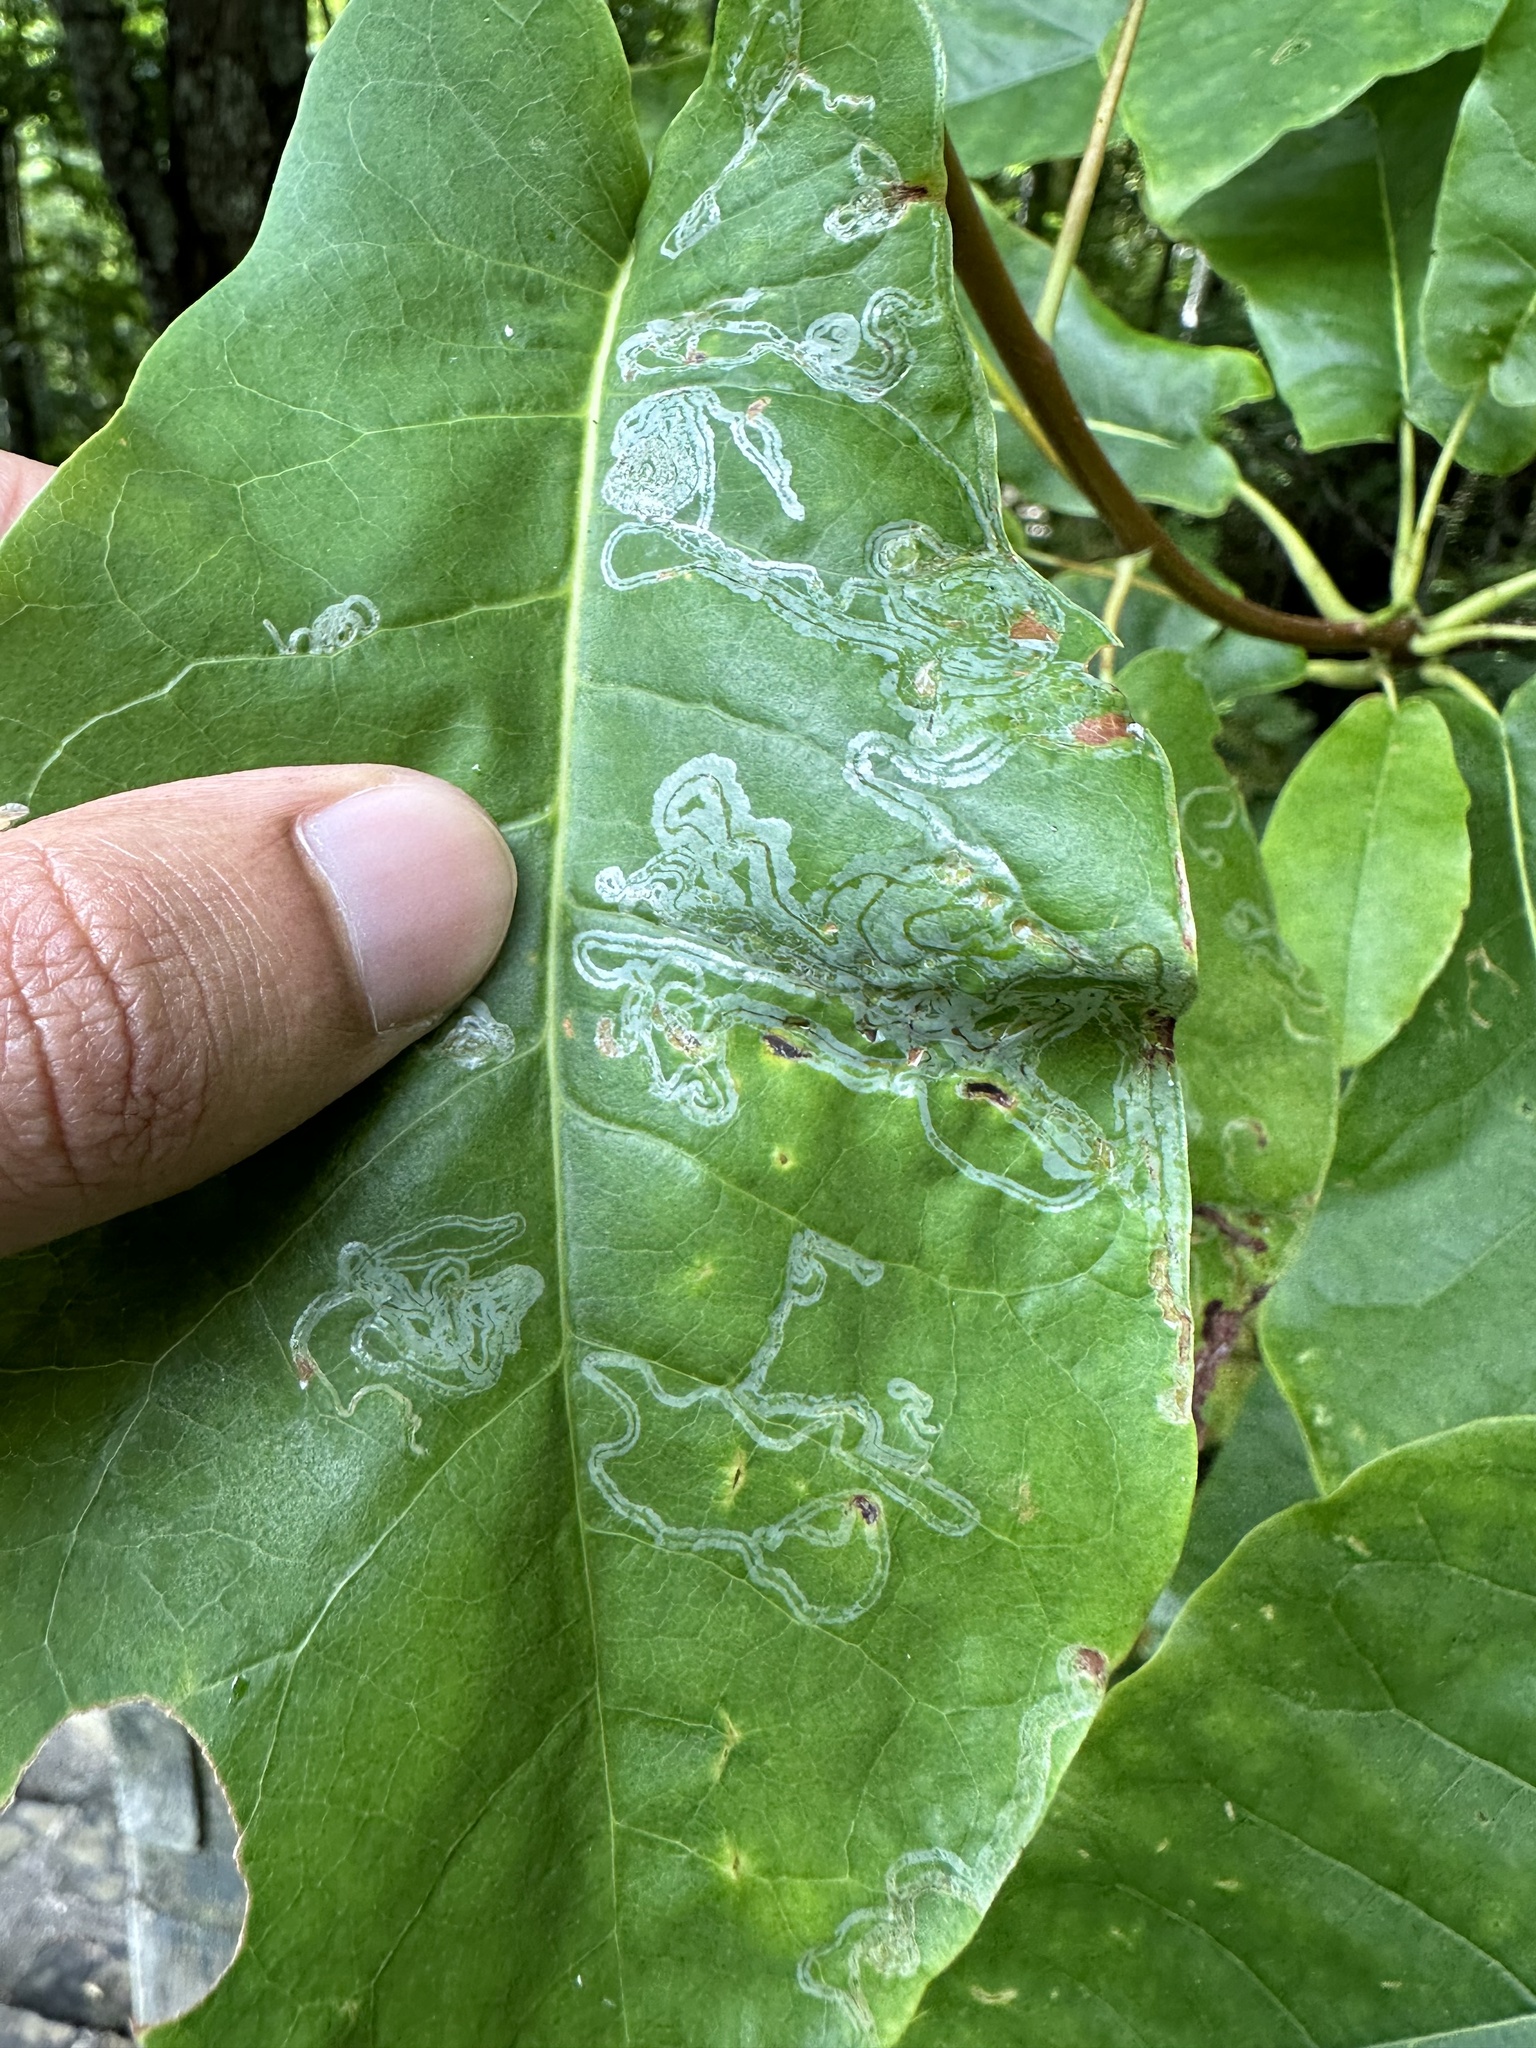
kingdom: Animalia
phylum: Arthropoda
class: Insecta
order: Lepidoptera
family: Gracillariidae
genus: Phyllocnistis
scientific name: Phyllocnistis liriodendronella
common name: Tulip tree leaf miner
